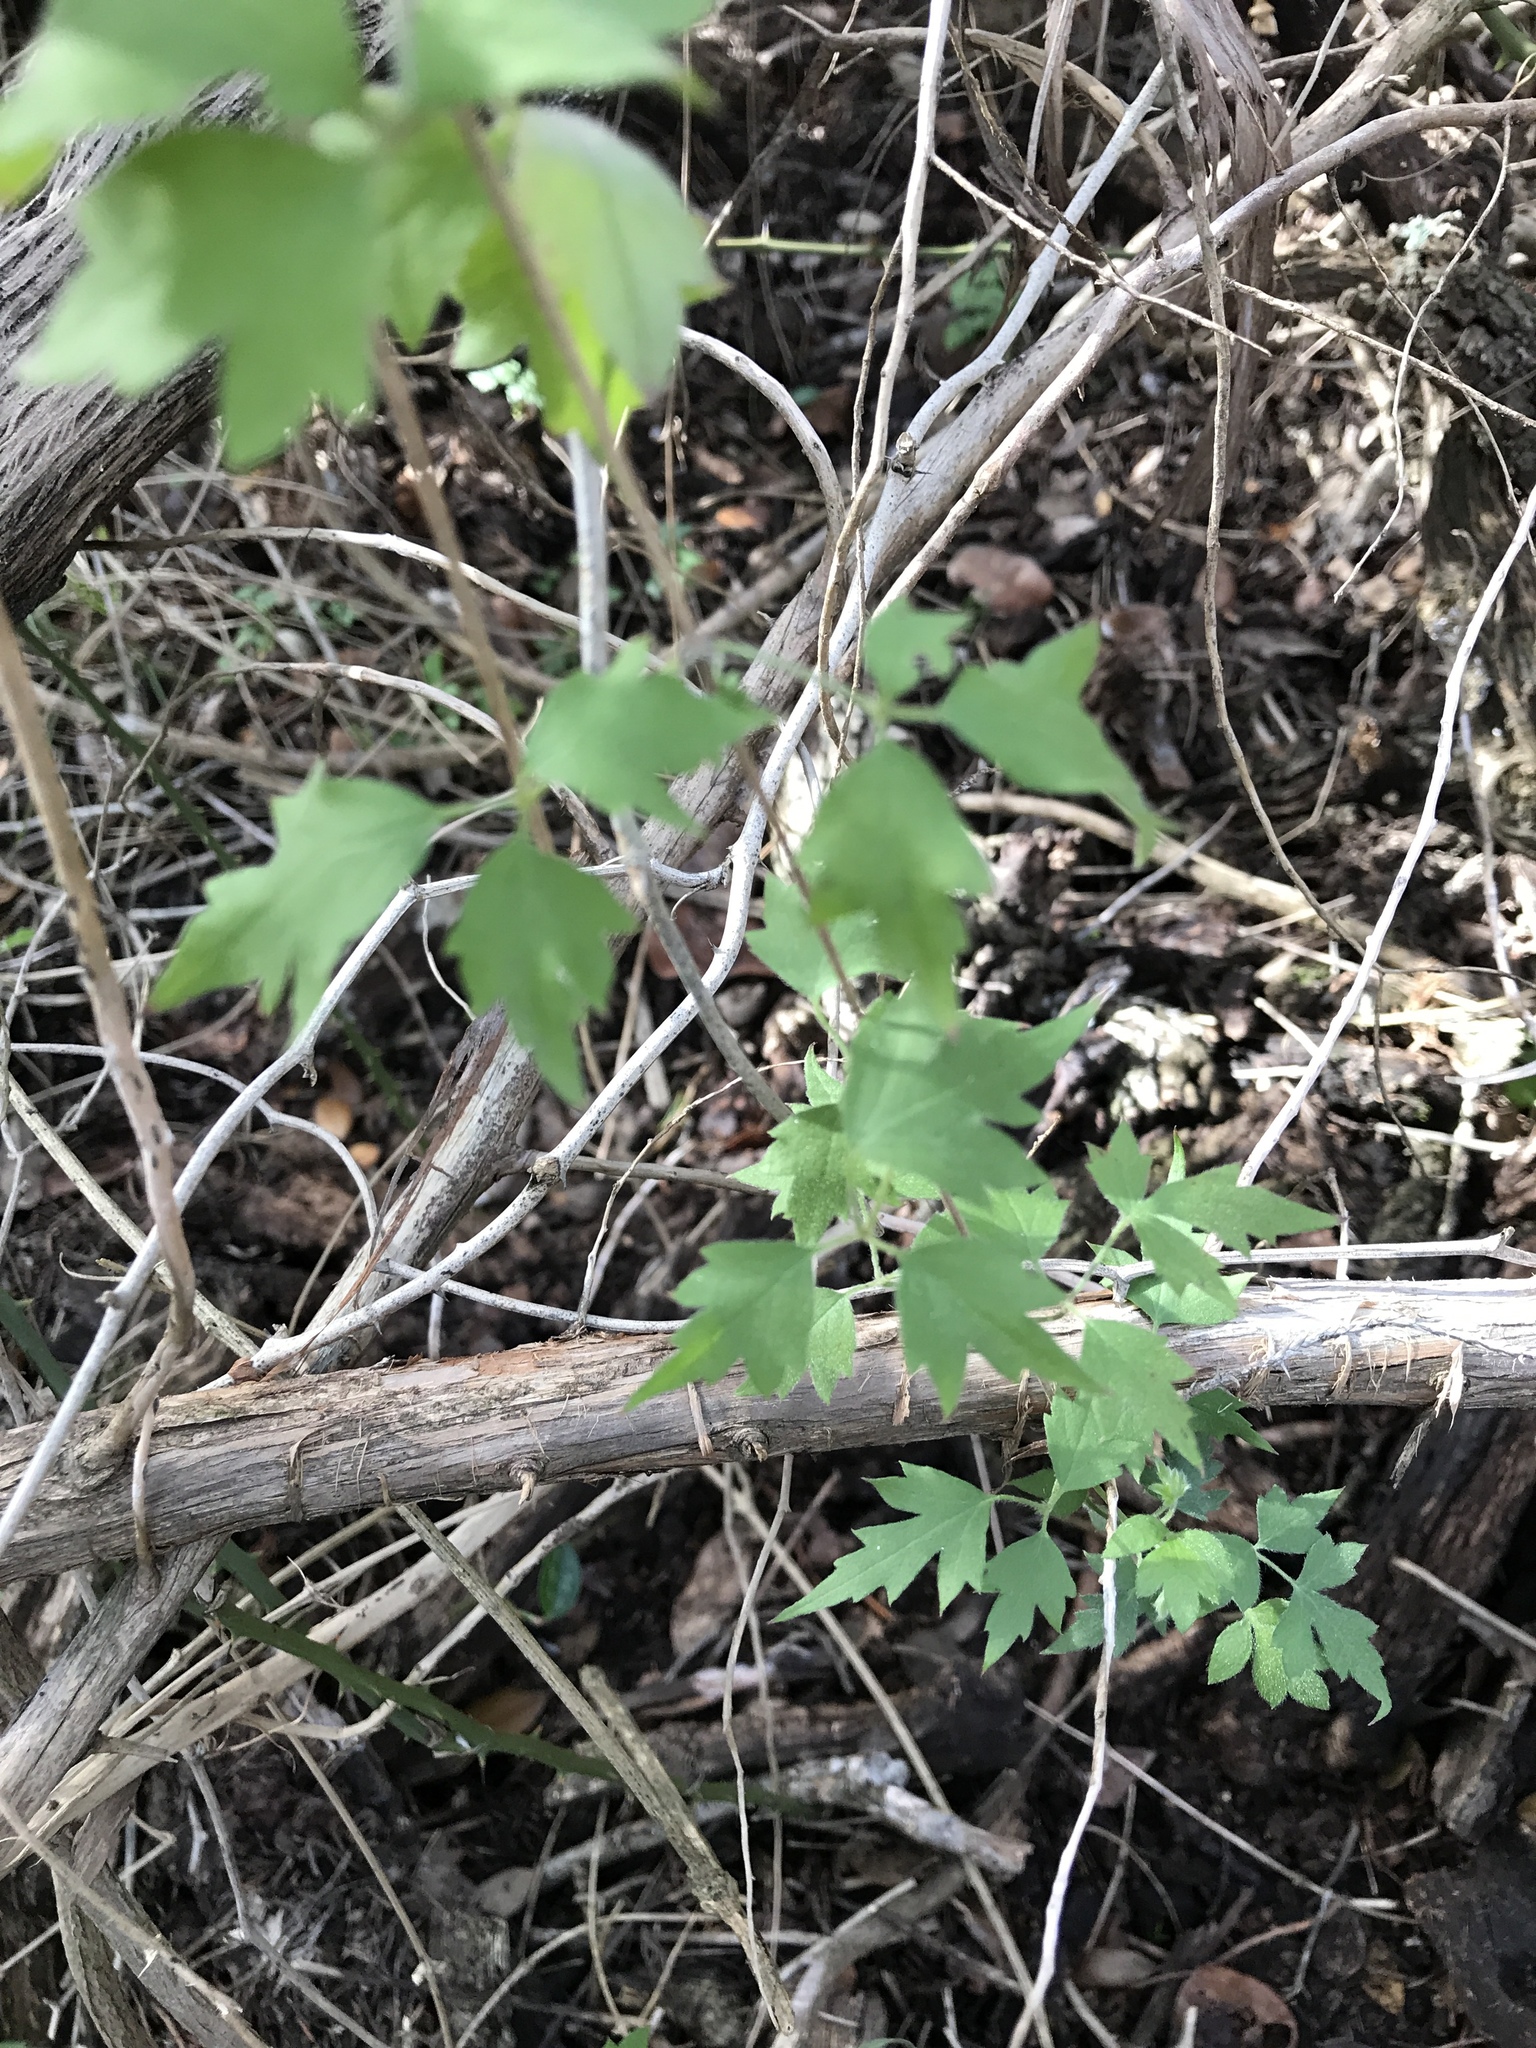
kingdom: Plantae
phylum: Tracheophyta
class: Magnoliopsida
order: Ranunculales
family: Ranunculaceae
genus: Clematis
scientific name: Clematis drummondii
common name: Texas virgin's bower
